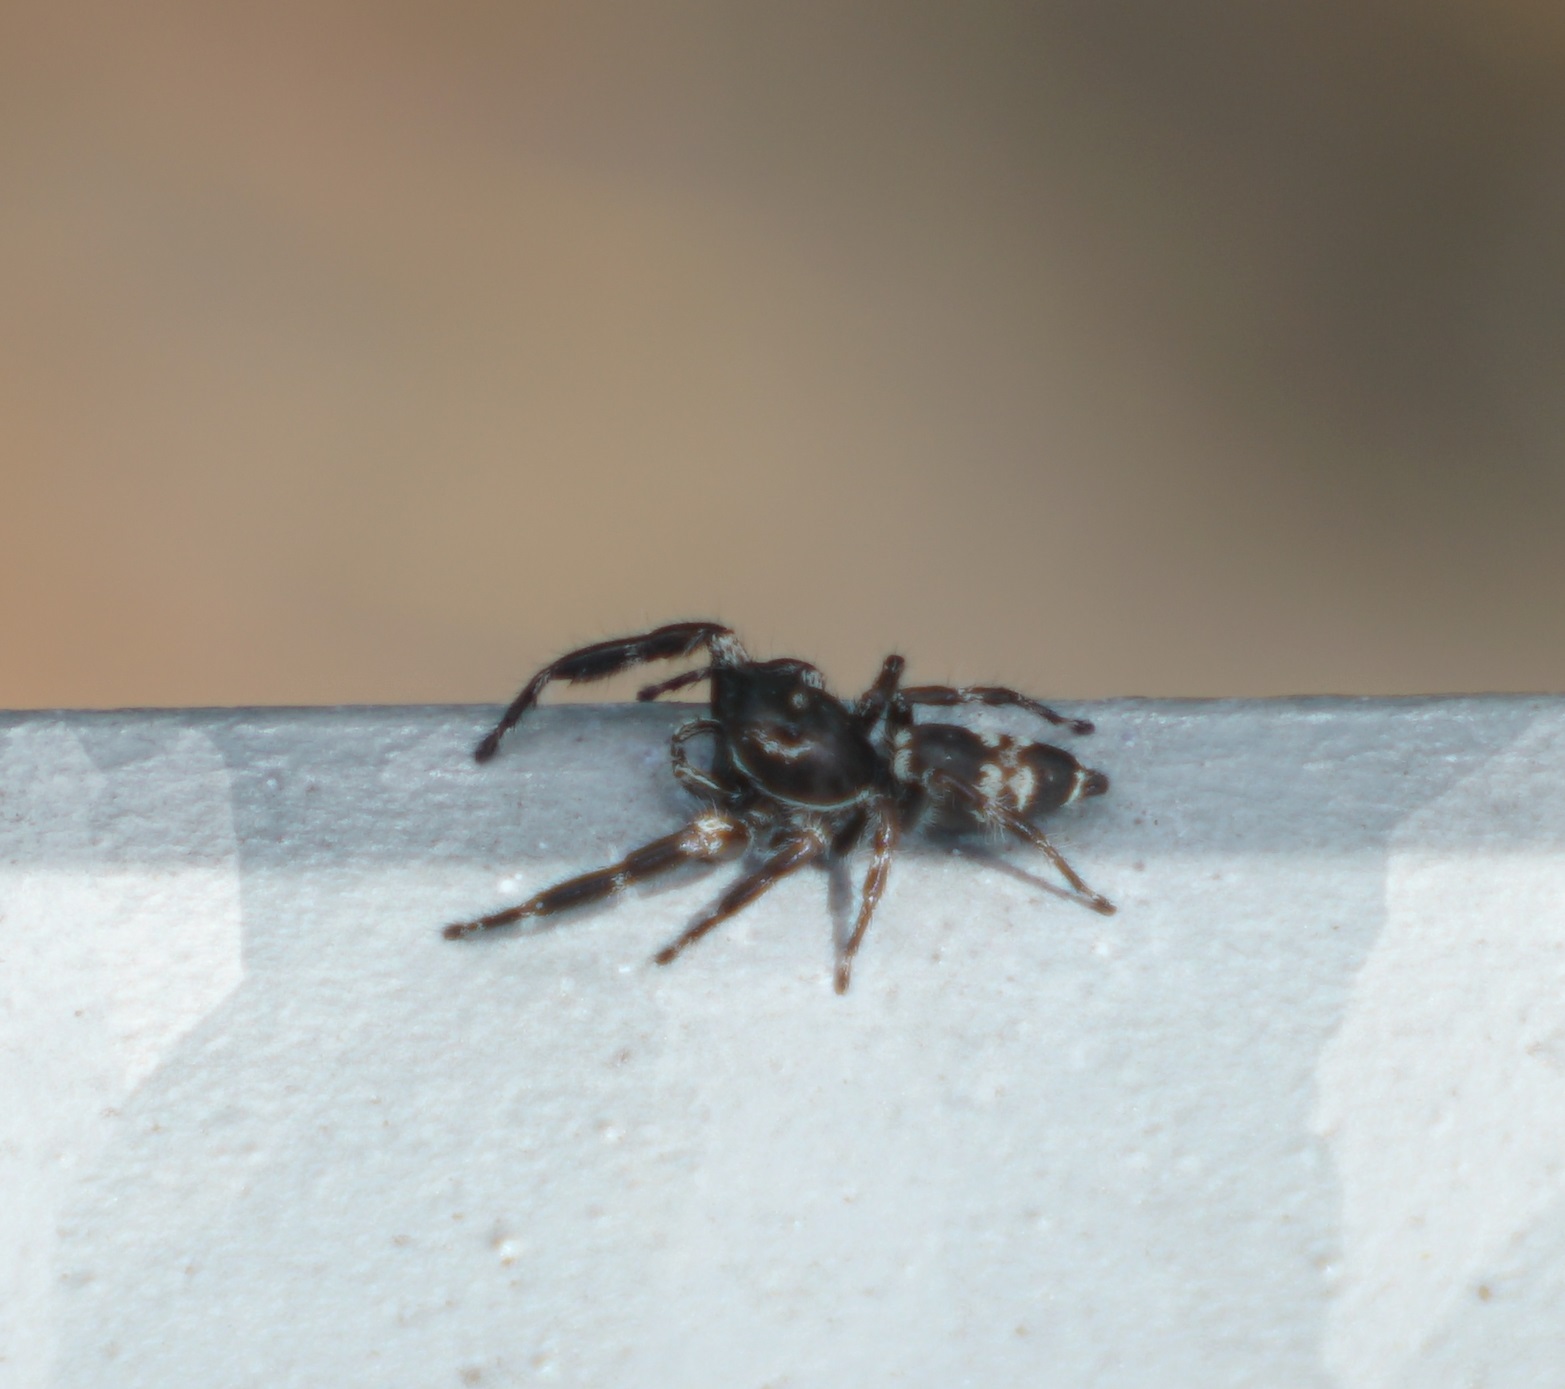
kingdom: Animalia
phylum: Arthropoda
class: Arachnida
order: Araneae
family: Salticidae
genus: Sandalodes
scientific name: Sandalodes superbus
